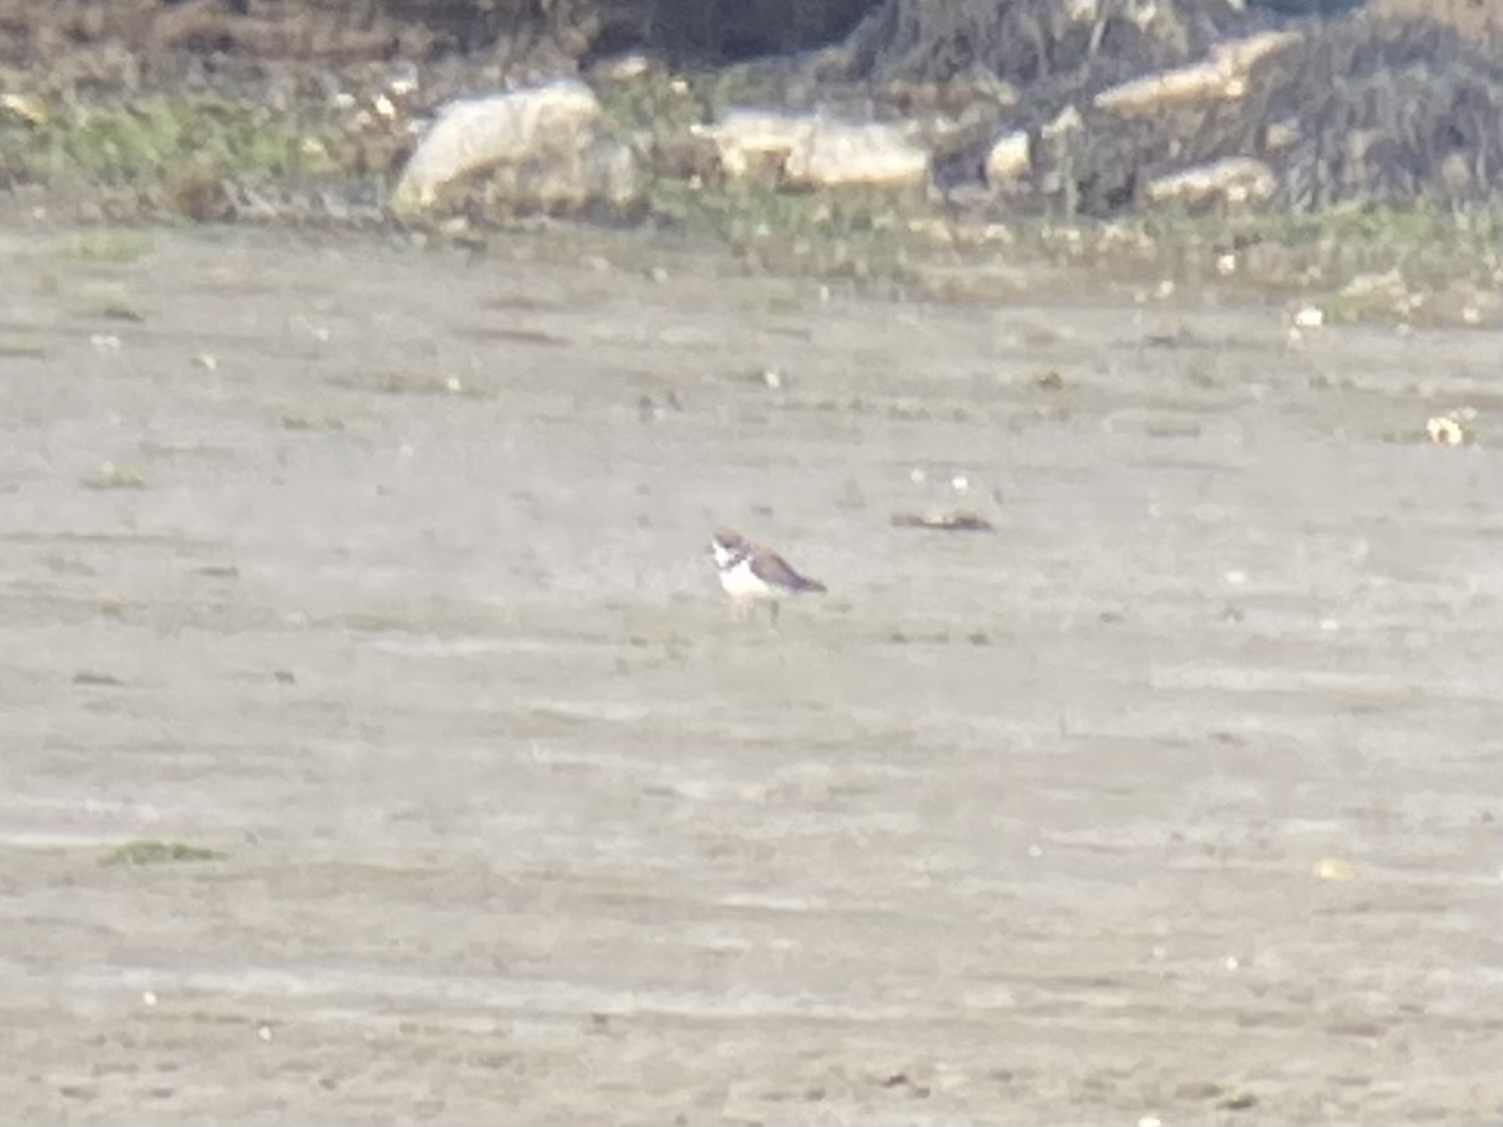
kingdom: Animalia
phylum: Chordata
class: Aves
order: Charadriiformes
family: Charadriidae
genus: Charadrius
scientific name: Charadrius semipalmatus
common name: Semipalmated plover
